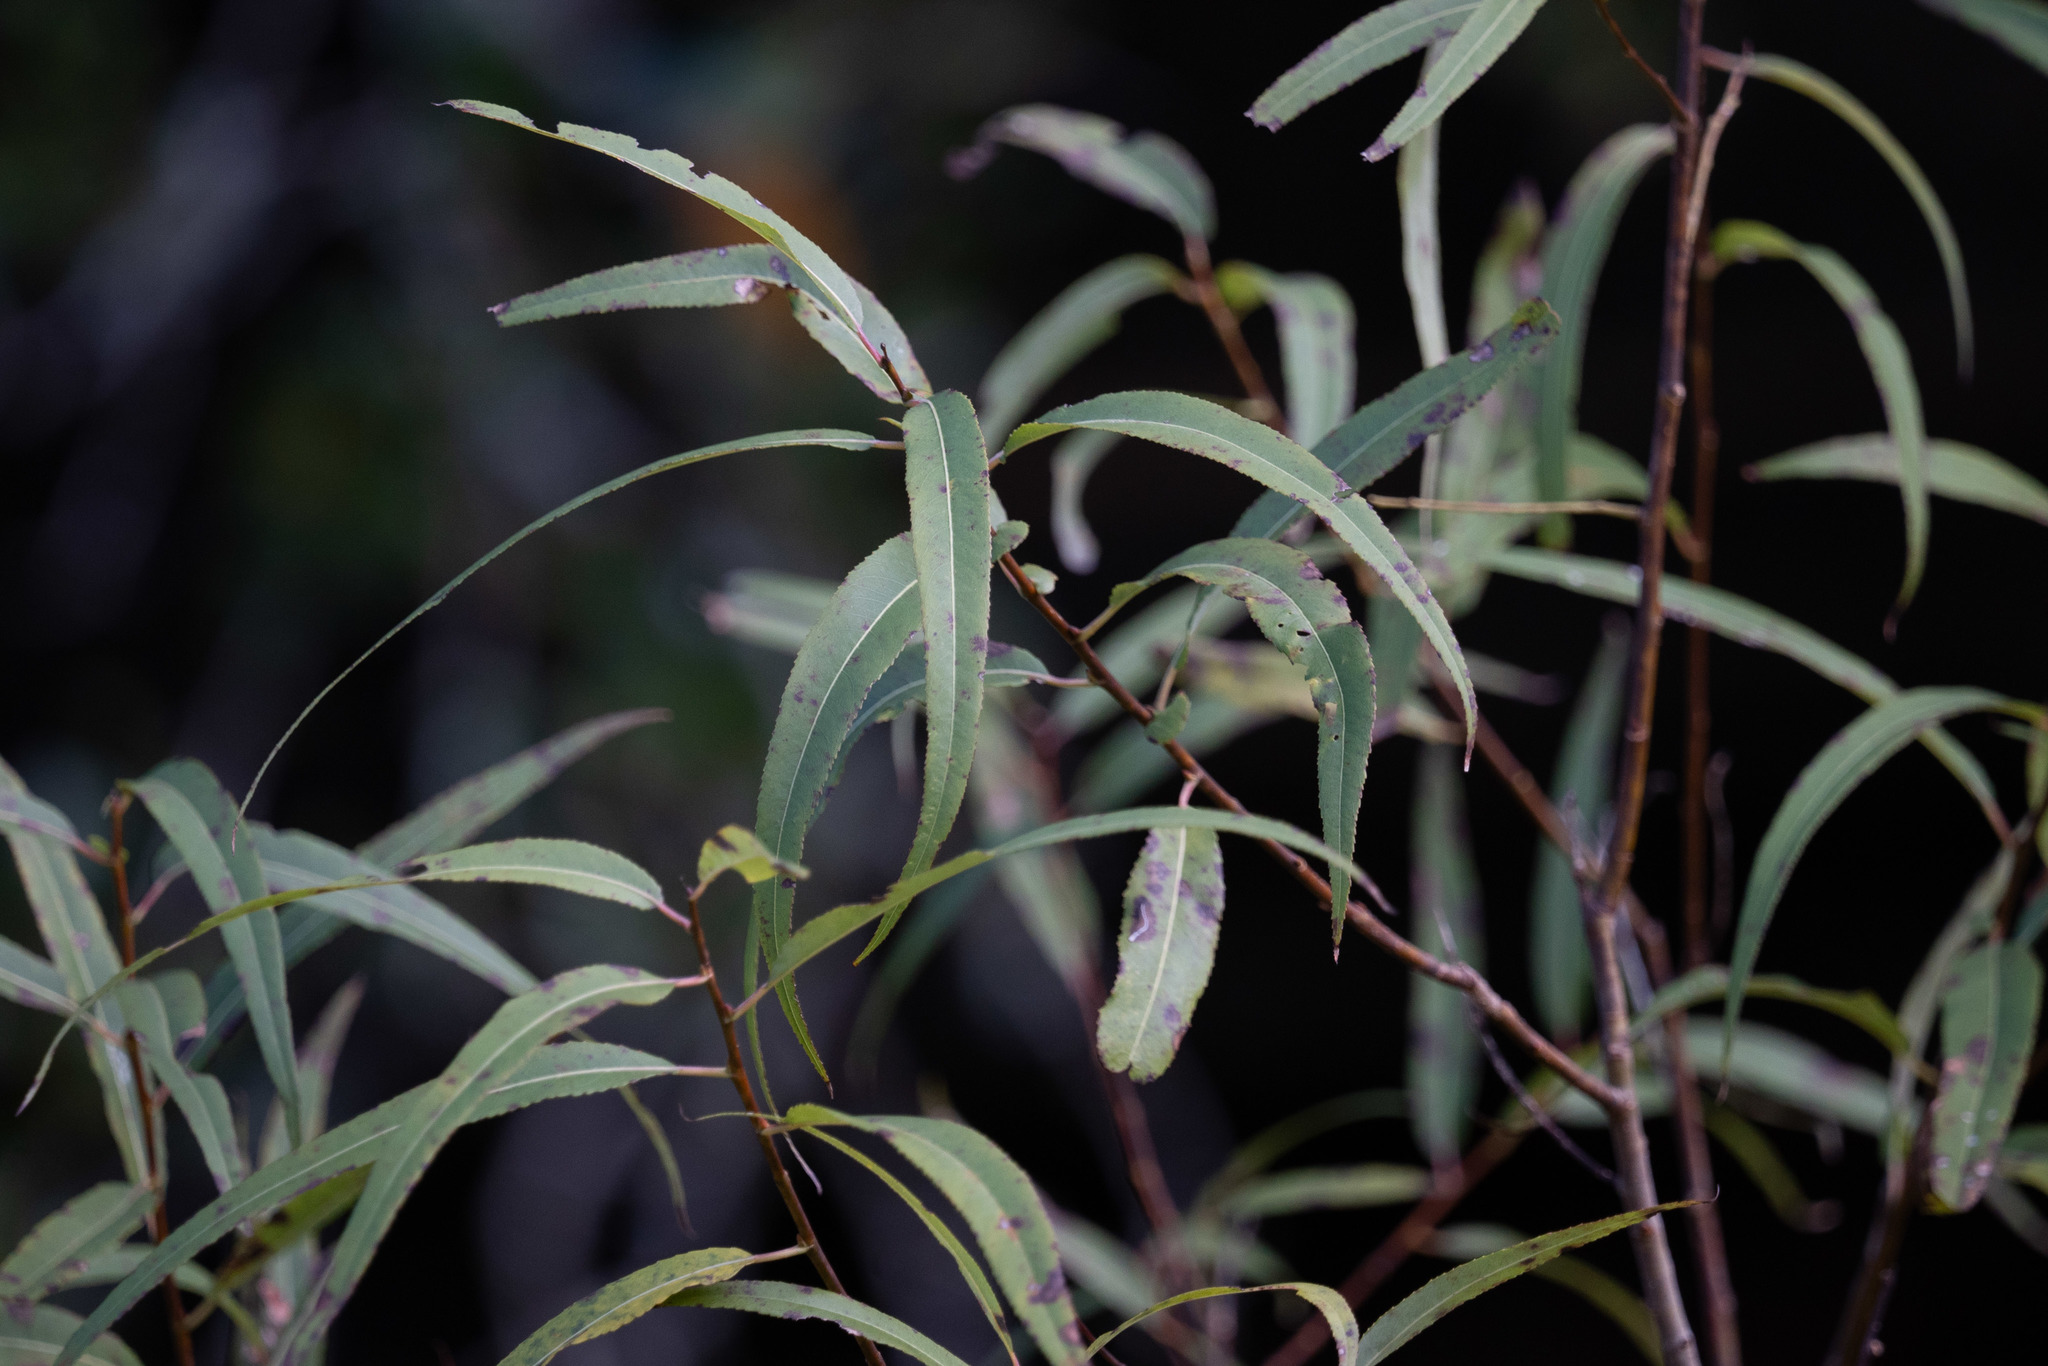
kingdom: Plantae
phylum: Tracheophyta
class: Magnoliopsida
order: Malpighiales
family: Salicaceae
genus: Salix
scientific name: Salix caroliniana
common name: Carolina willow
